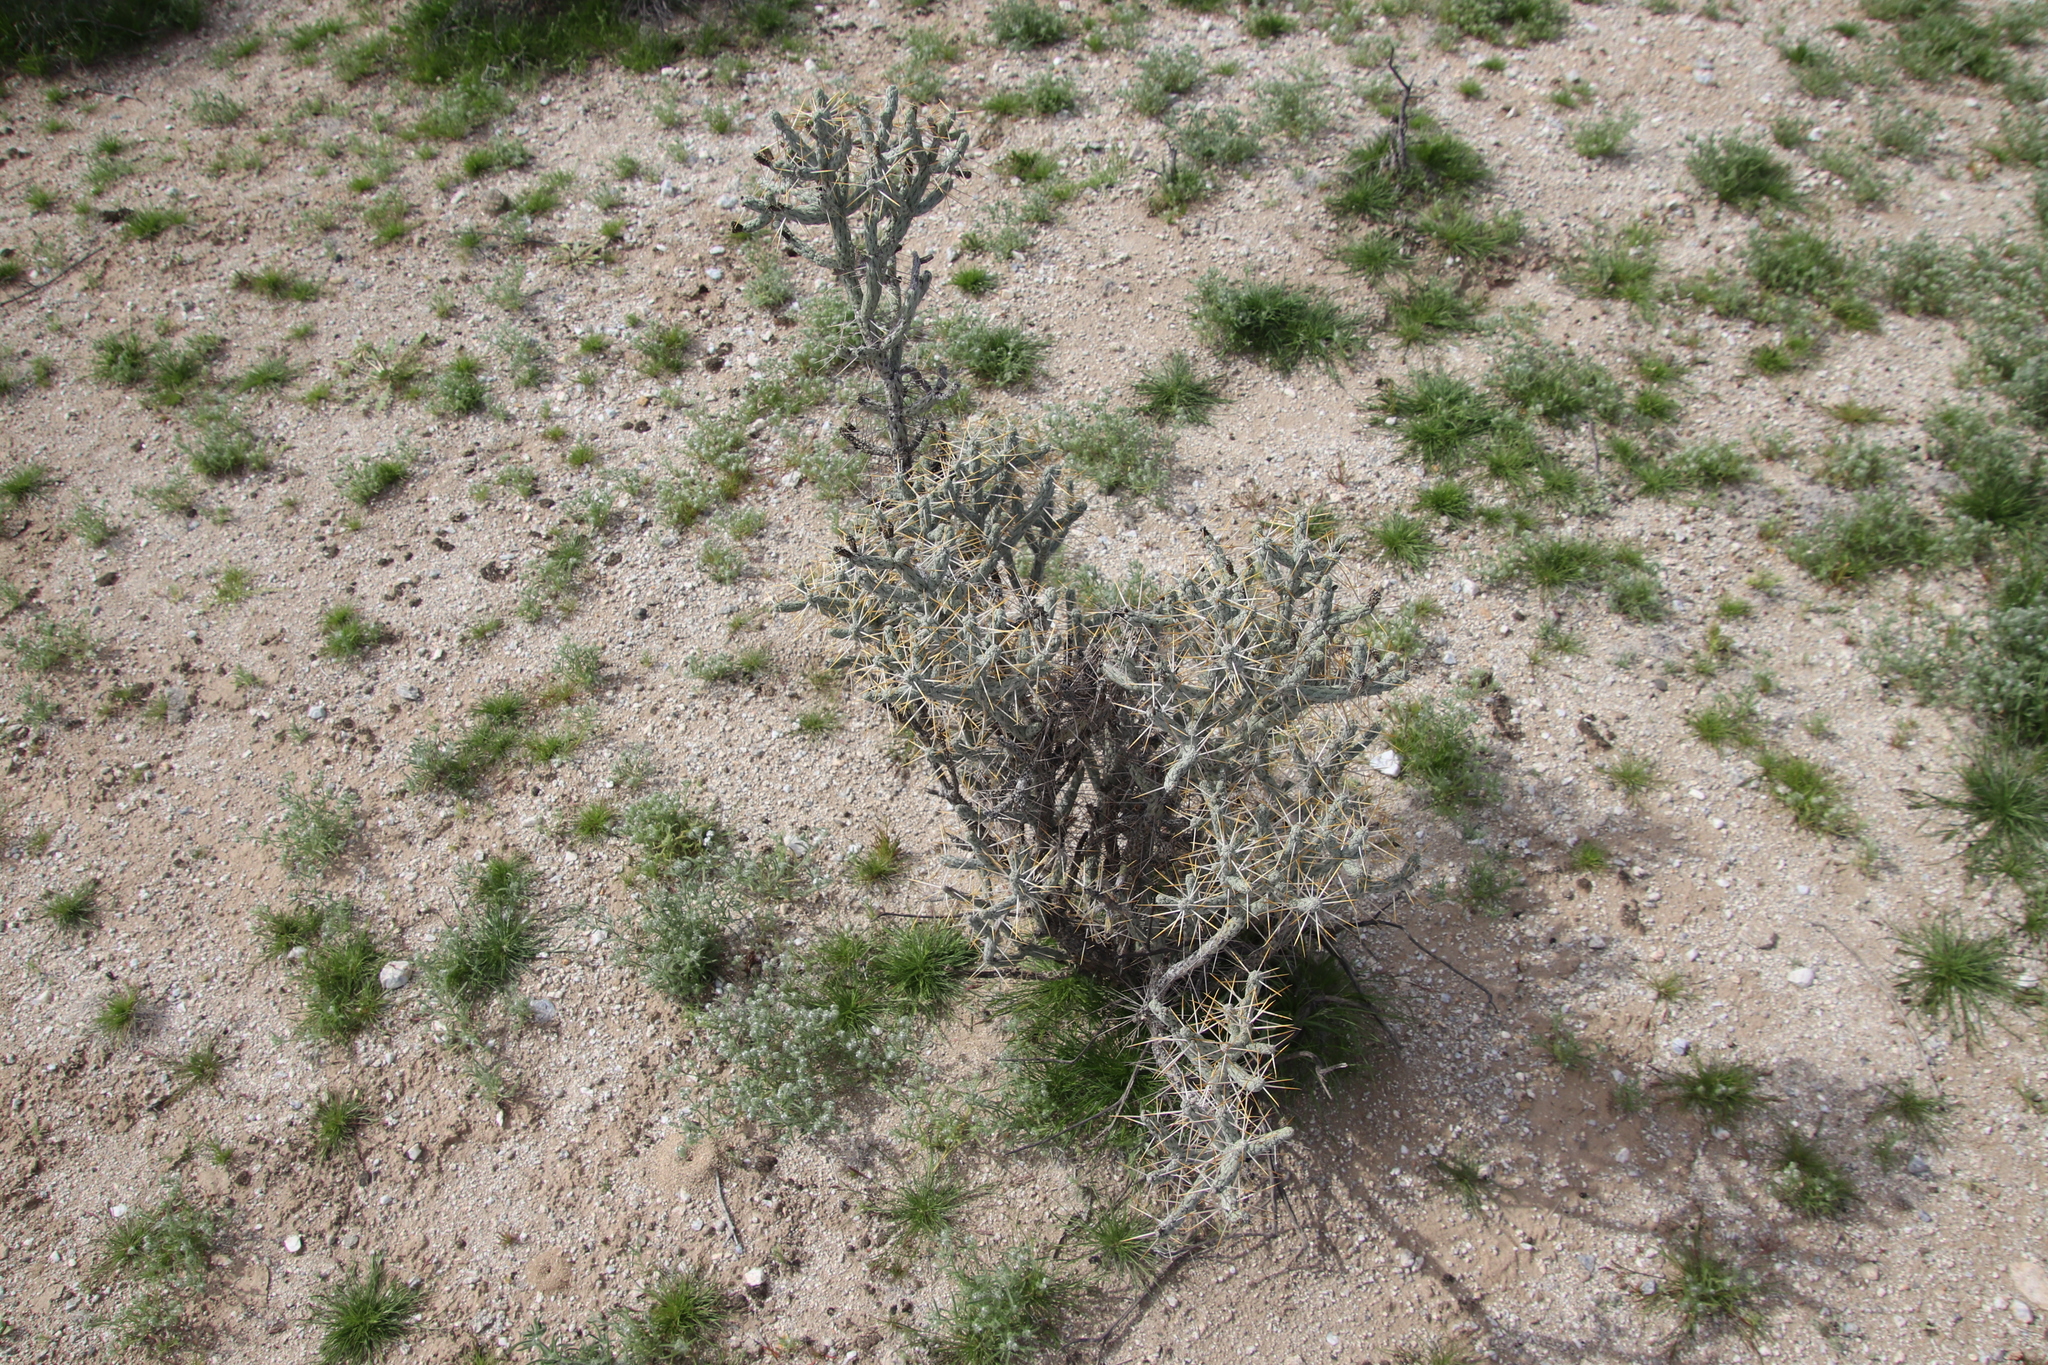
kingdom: Plantae
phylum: Tracheophyta
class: Magnoliopsida
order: Caryophyllales
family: Cactaceae
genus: Cylindropuntia
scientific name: Cylindropuntia ramosissima
